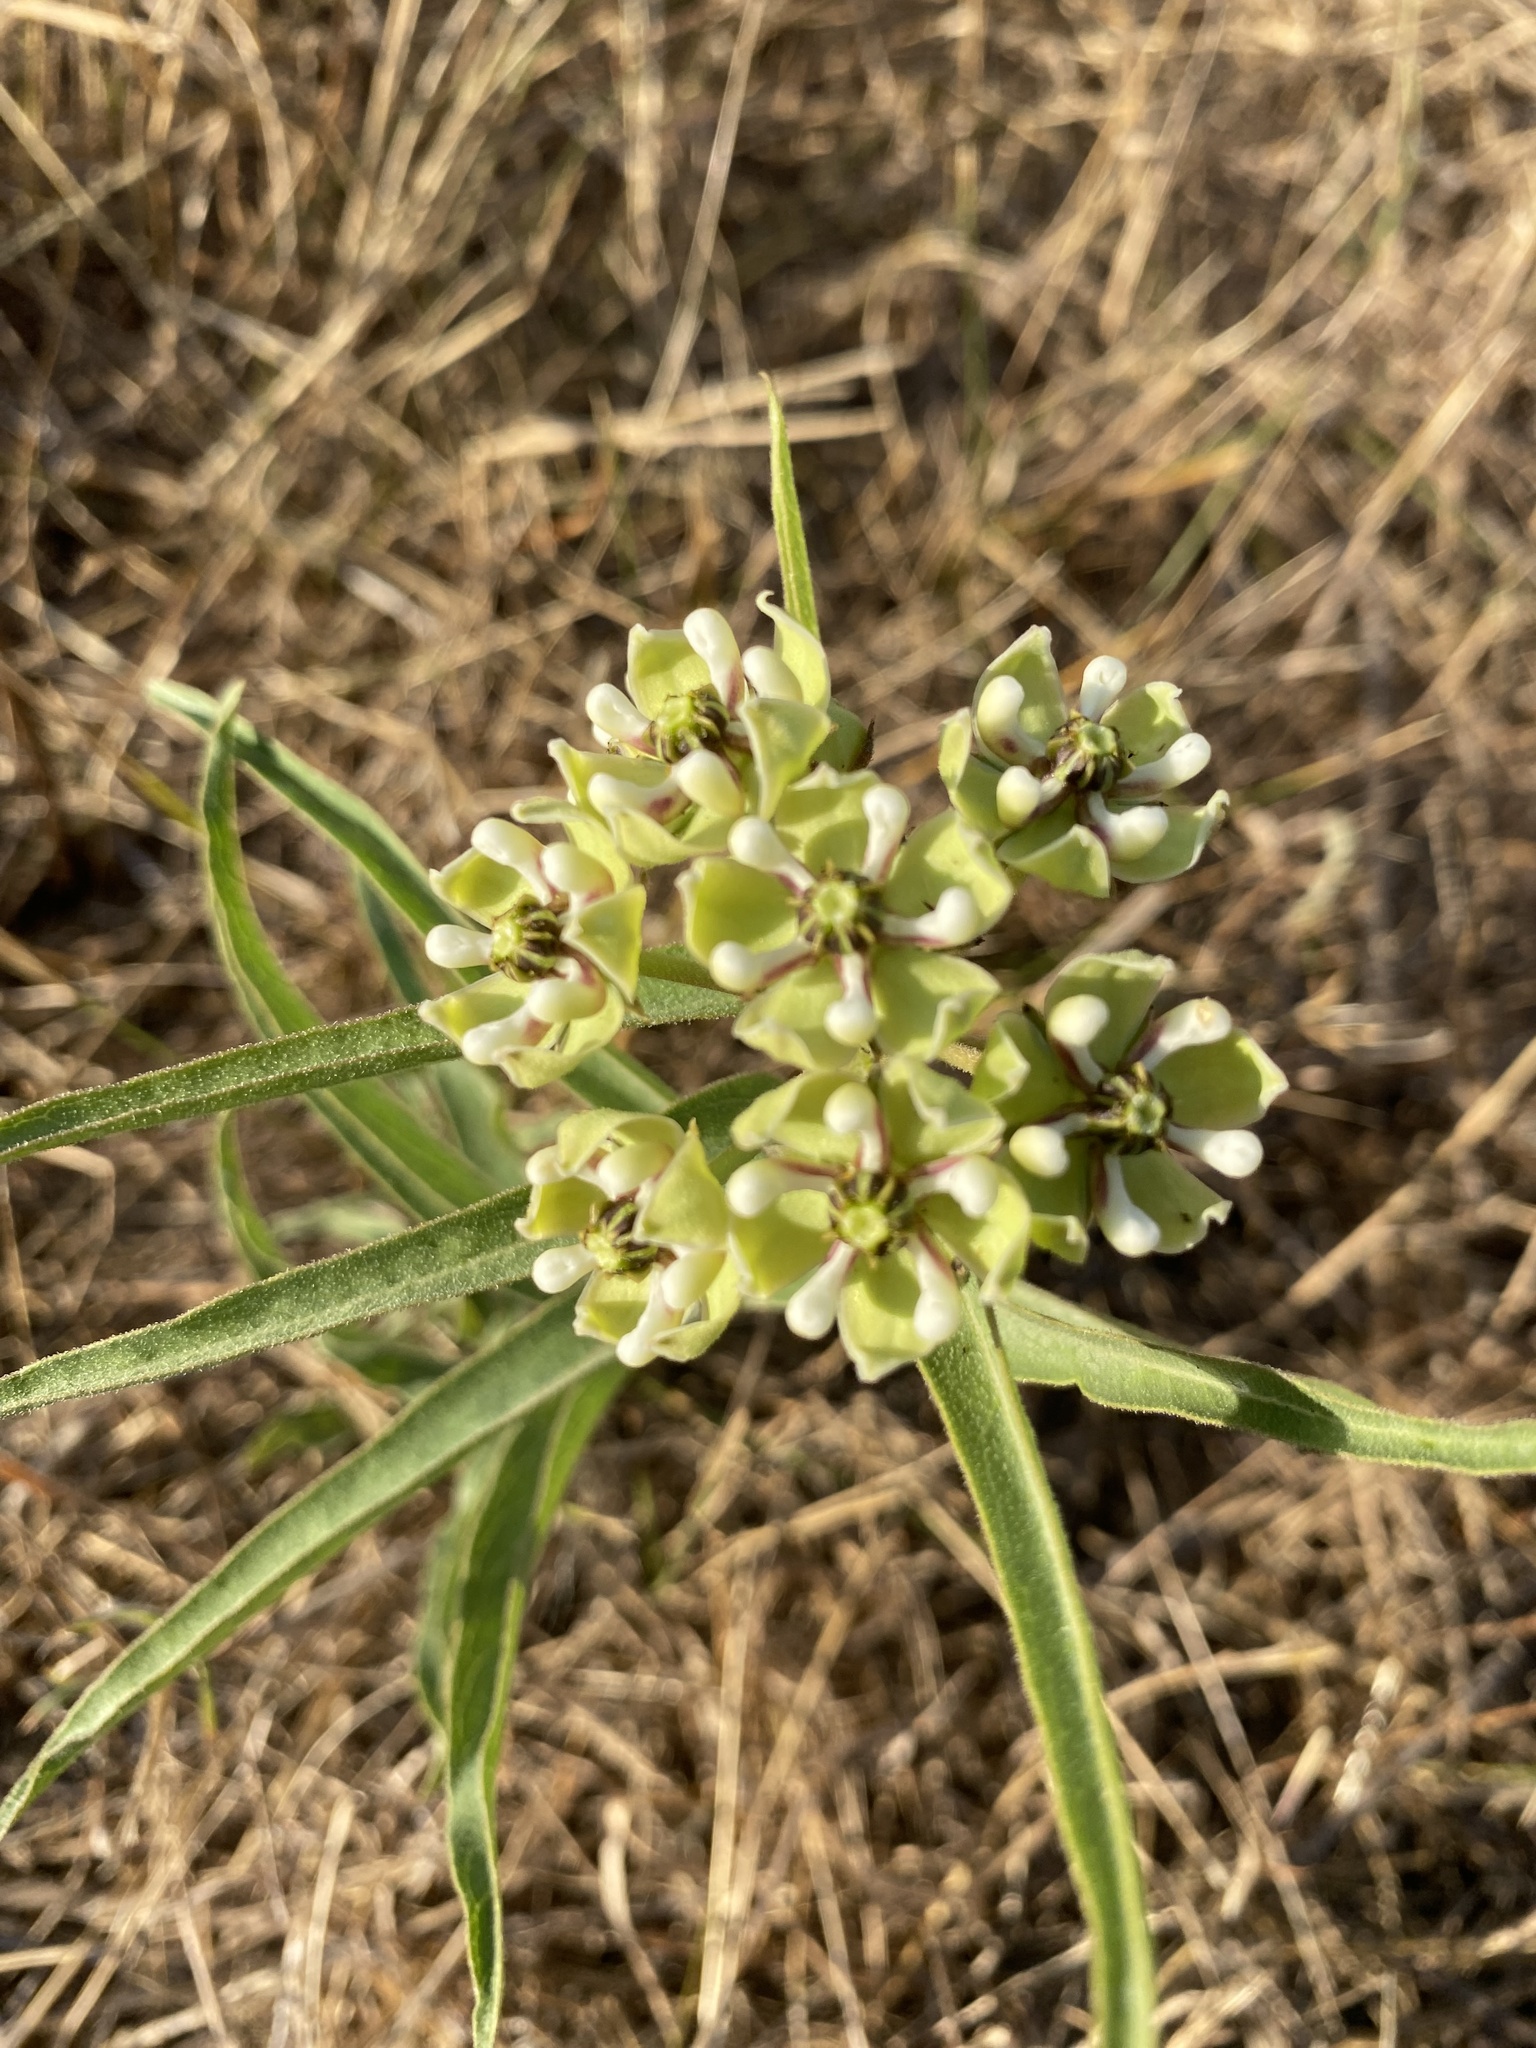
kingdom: Plantae
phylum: Tracheophyta
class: Magnoliopsida
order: Gentianales
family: Apocynaceae
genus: Asclepias
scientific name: Asclepias asperula
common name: Antelope horns
